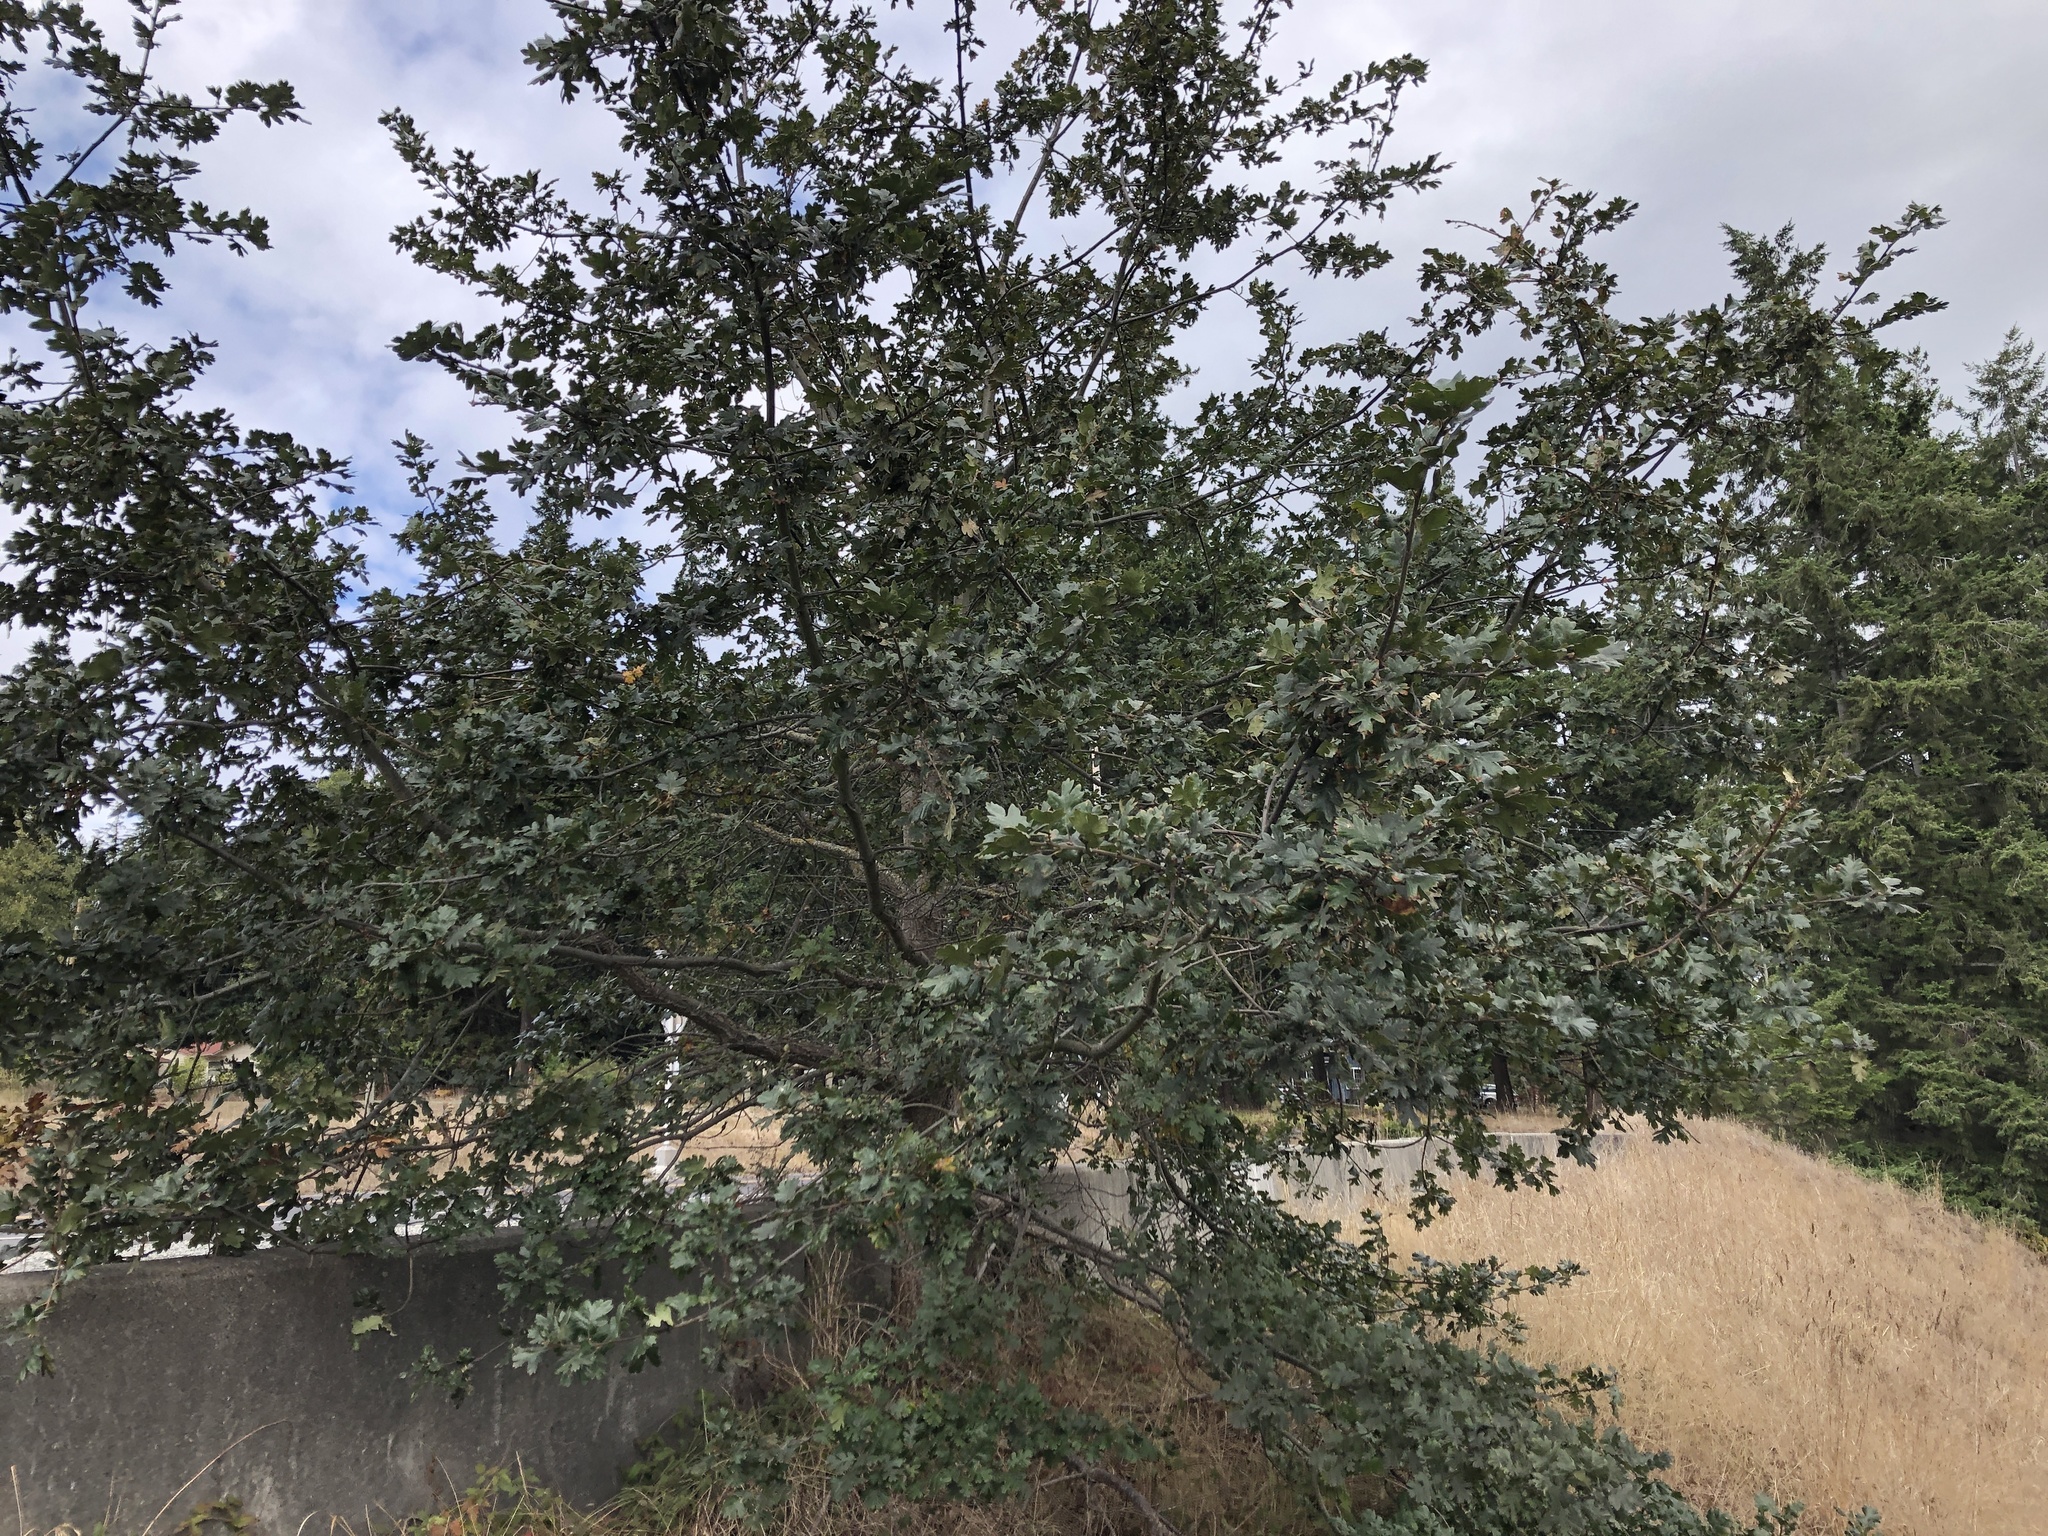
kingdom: Plantae
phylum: Tracheophyta
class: Magnoliopsida
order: Fagales
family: Fagaceae
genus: Quercus
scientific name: Quercus garryana
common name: Garry oak
